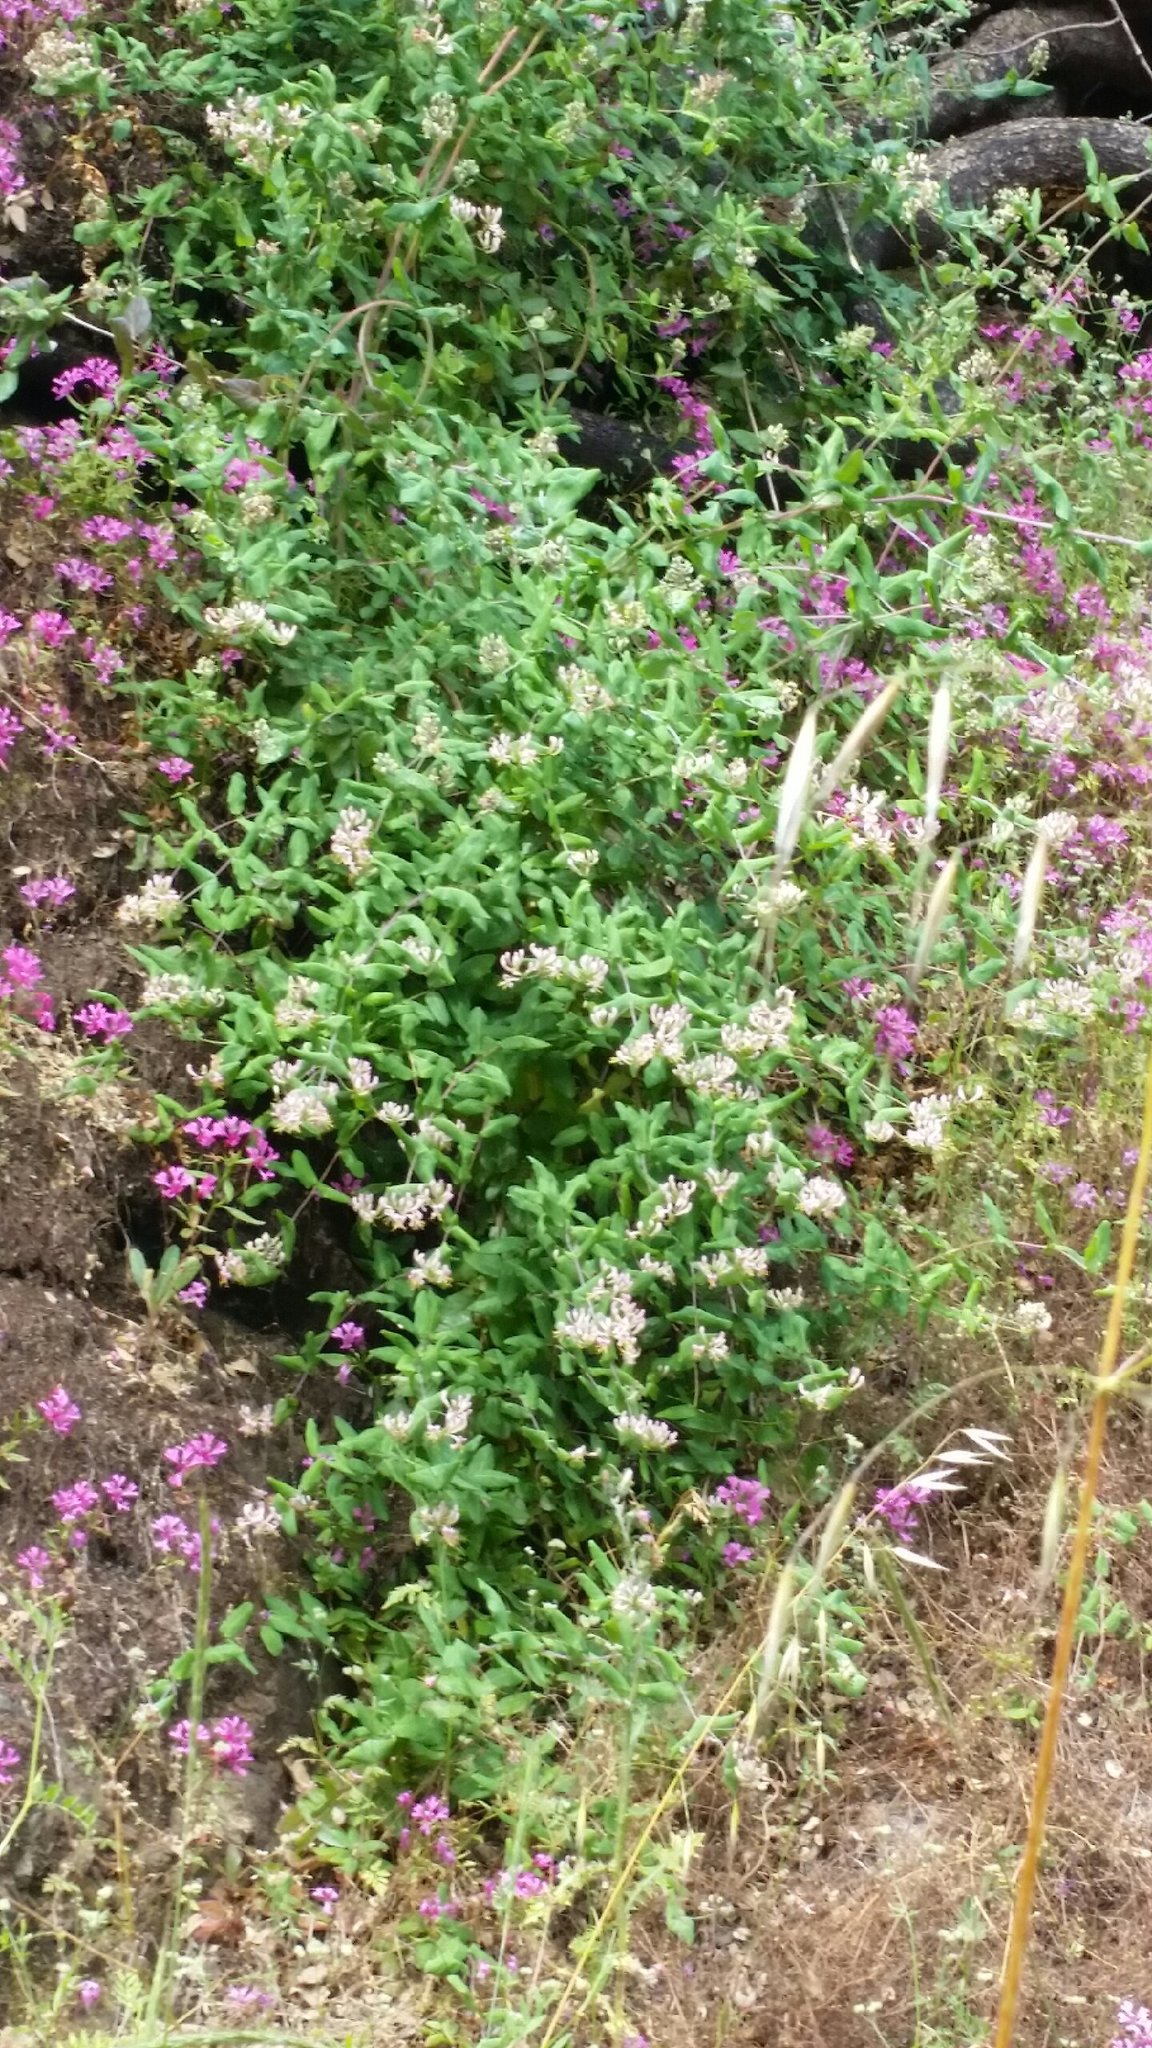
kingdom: Plantae
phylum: Tracheophyta
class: Magnoliopsida
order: Dipsacales
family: Caprifoliaceae
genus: Lonicera
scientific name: Lonicera hispidula
